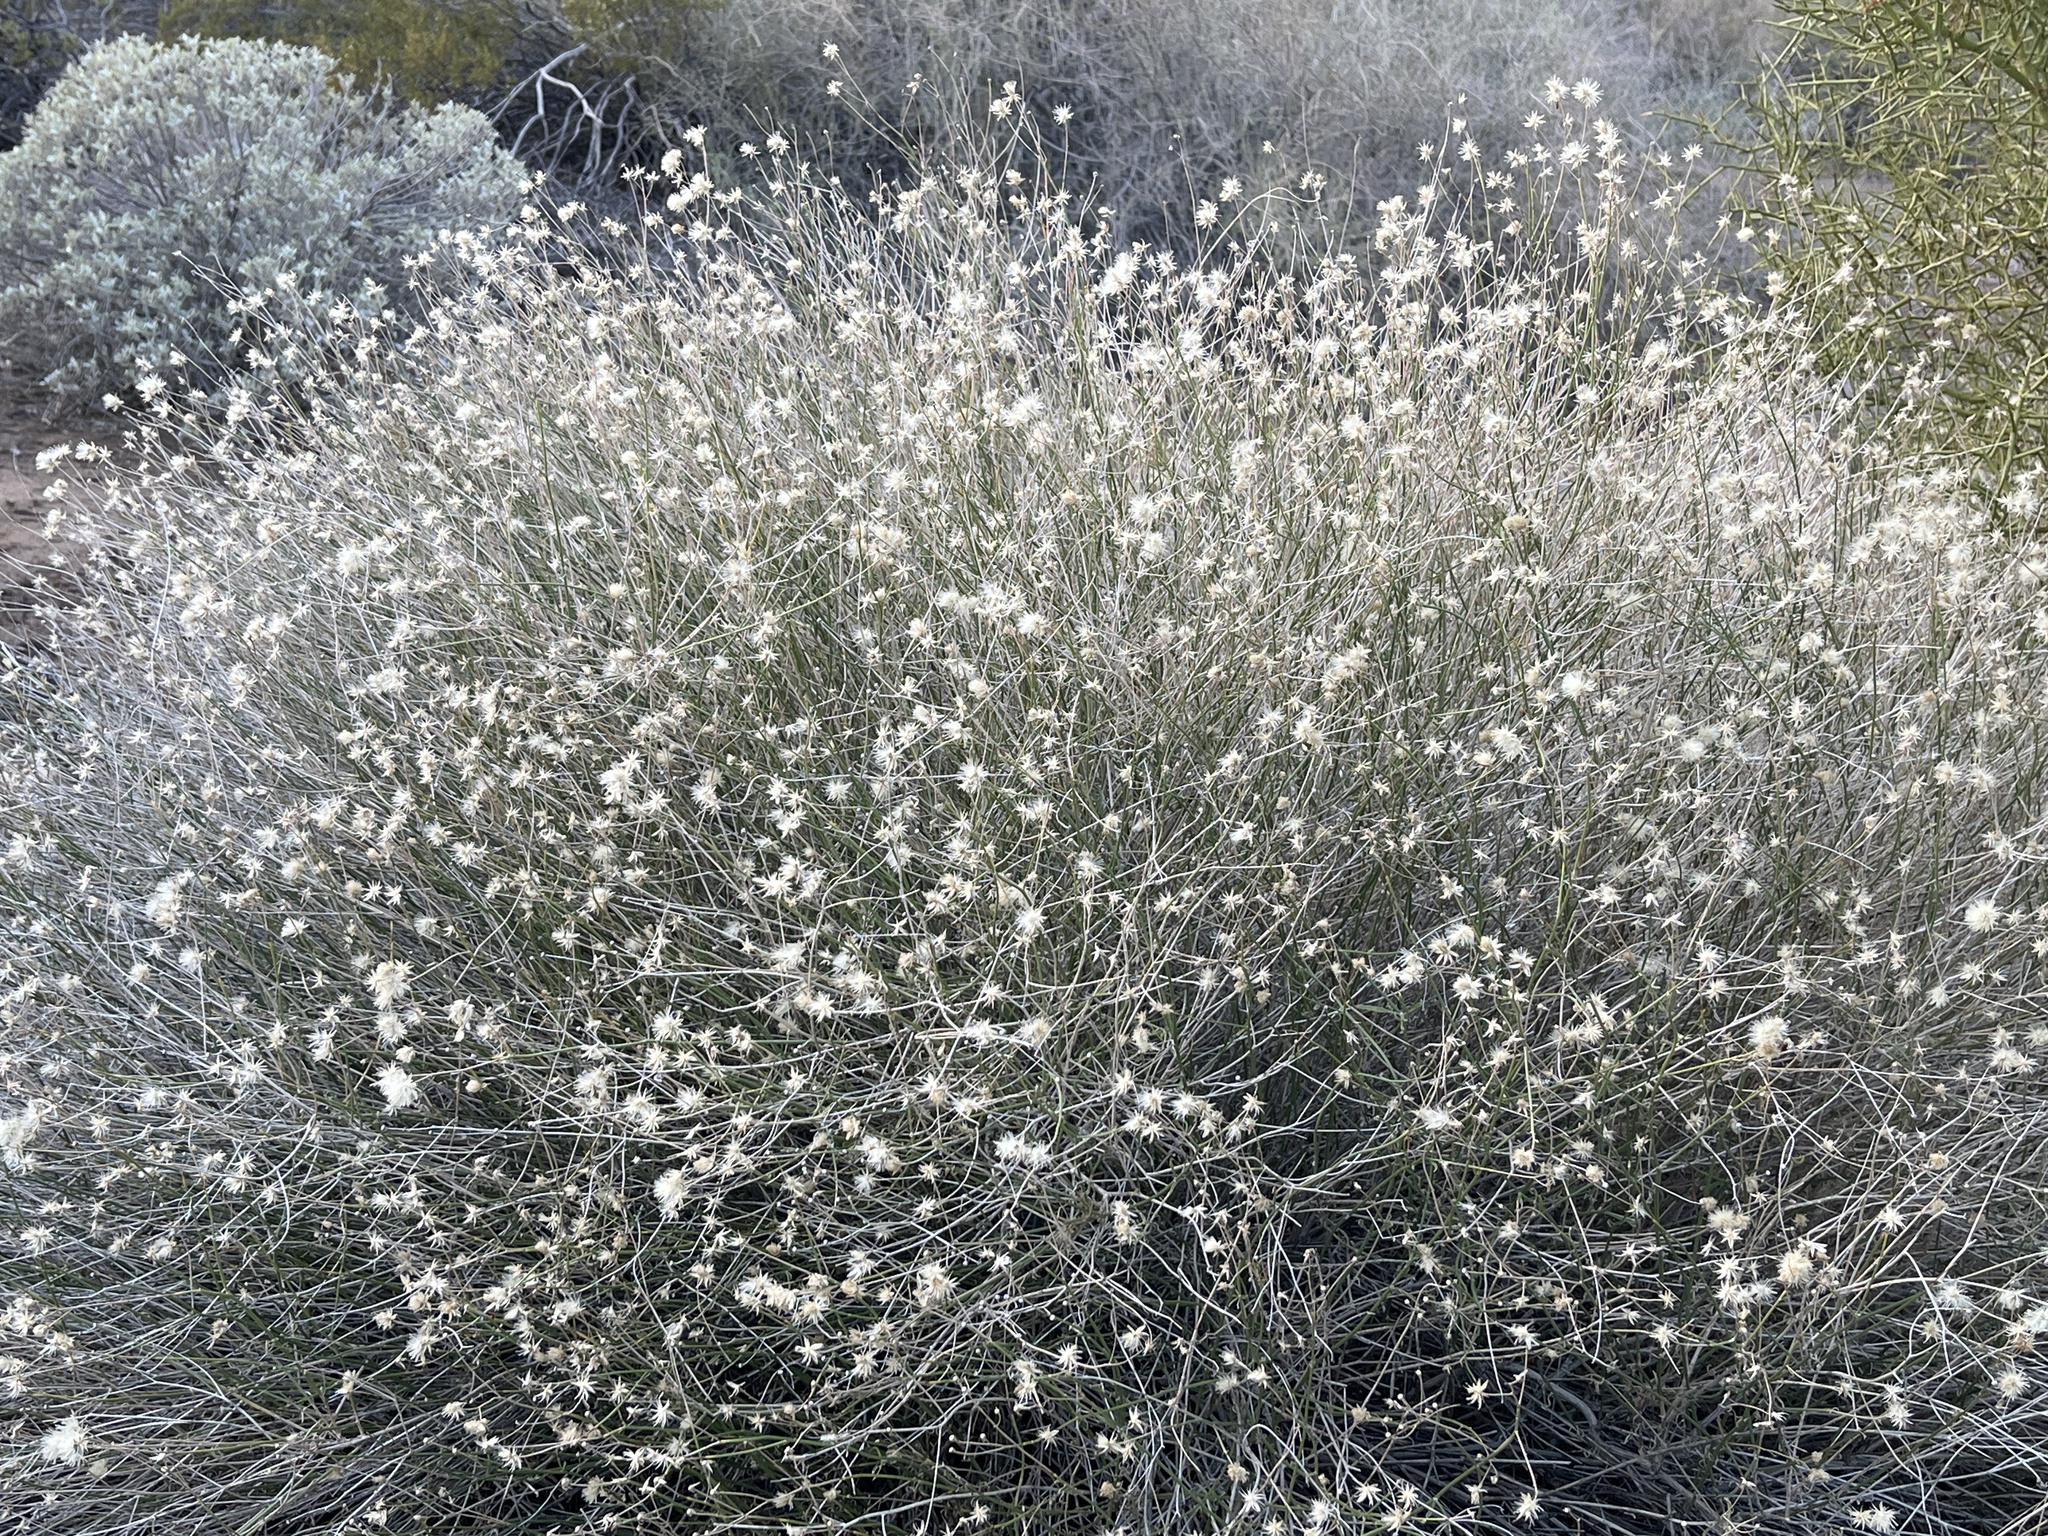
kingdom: Plantae
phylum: Tracheophyta
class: Magnoliopsida
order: Asterales
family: Asteraceae
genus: Bebbia
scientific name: Bebbia juncea
